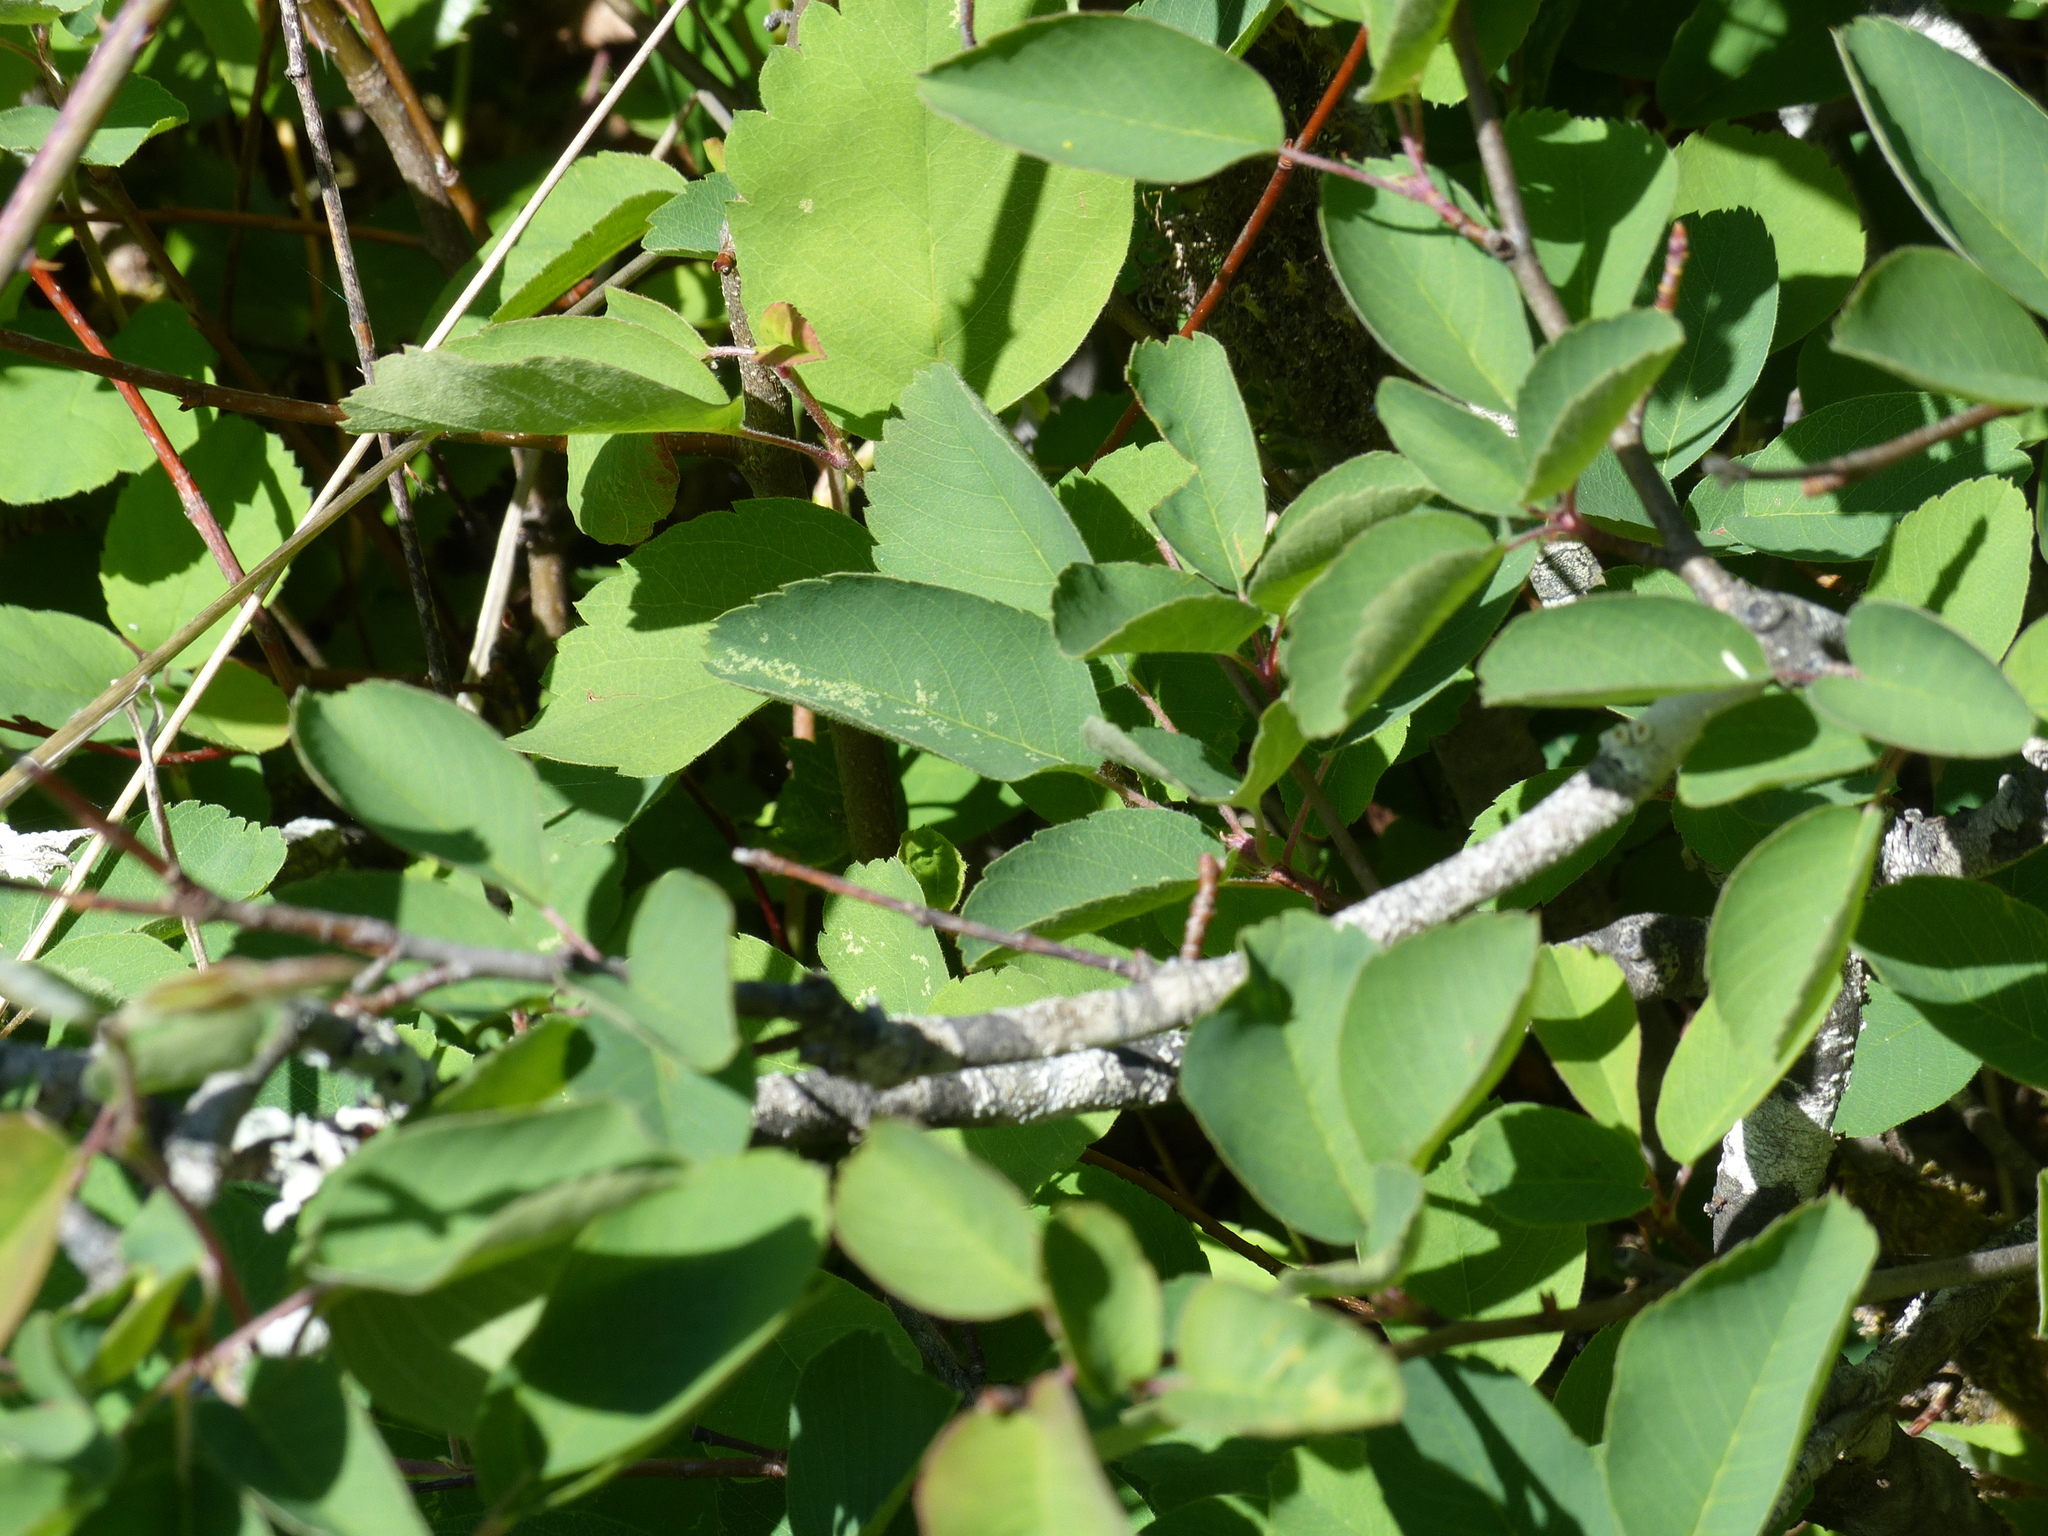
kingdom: Plantae
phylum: Tracheophyta
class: Magnoliopsida
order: Rosales
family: Rosaceae
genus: Amelanchier
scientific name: Amelanchier alnifolia
